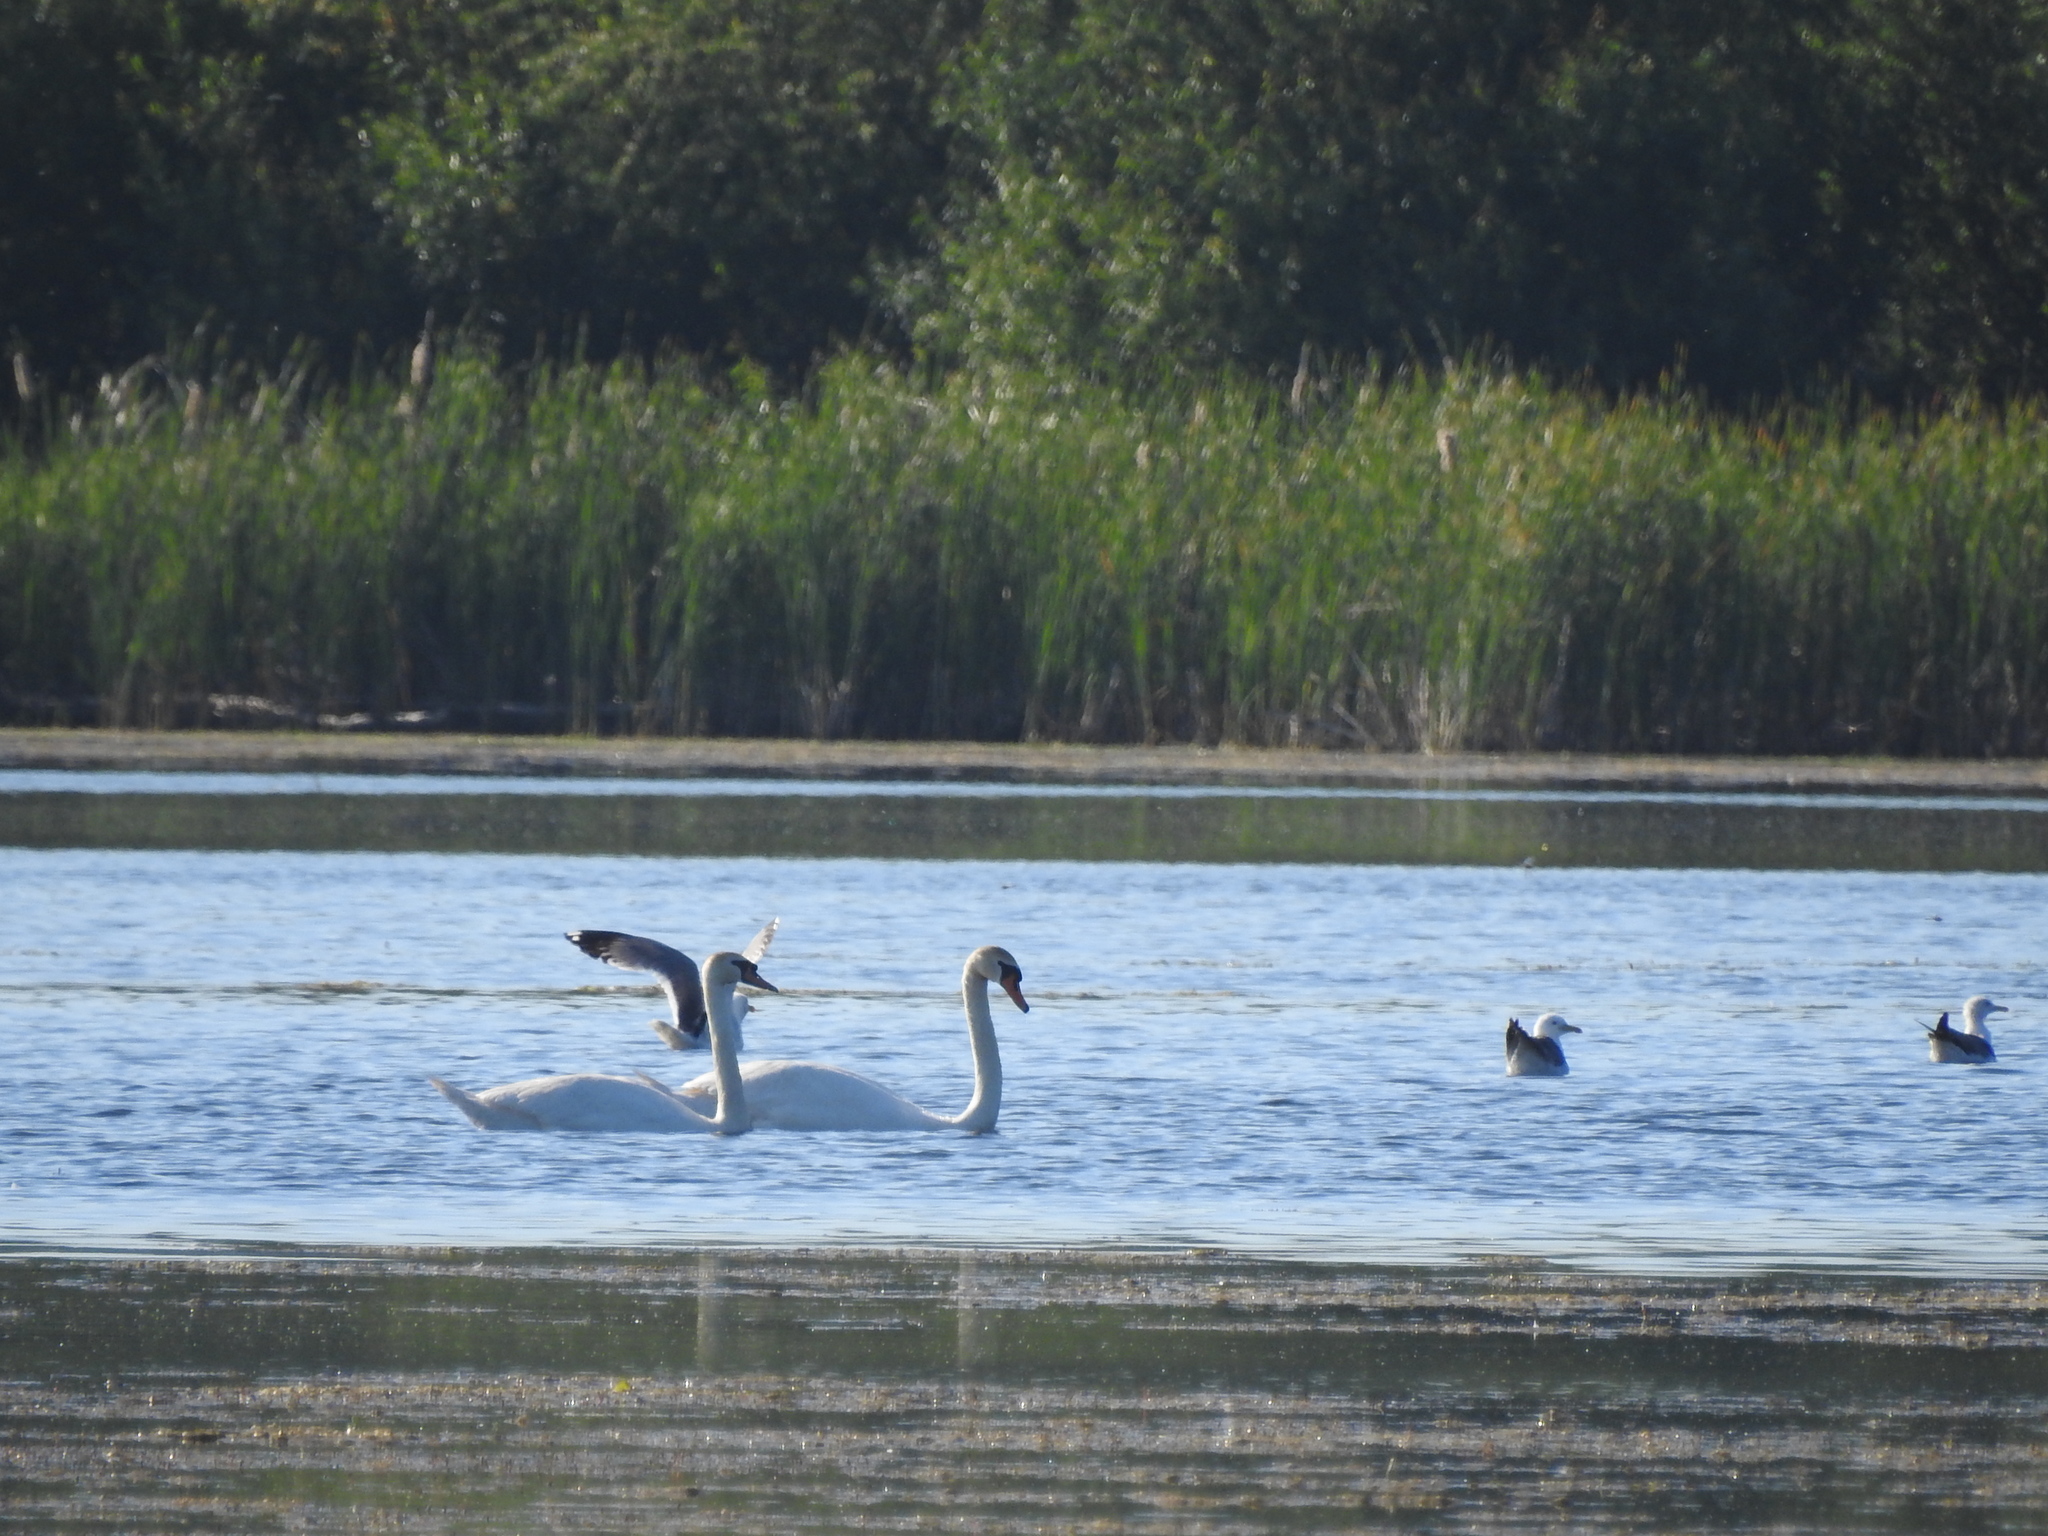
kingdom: Animalia
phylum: Chordata
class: Aves
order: Anseriformes
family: Anatidae
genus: Cygnus
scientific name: Cygnus olor
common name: Mute swan
